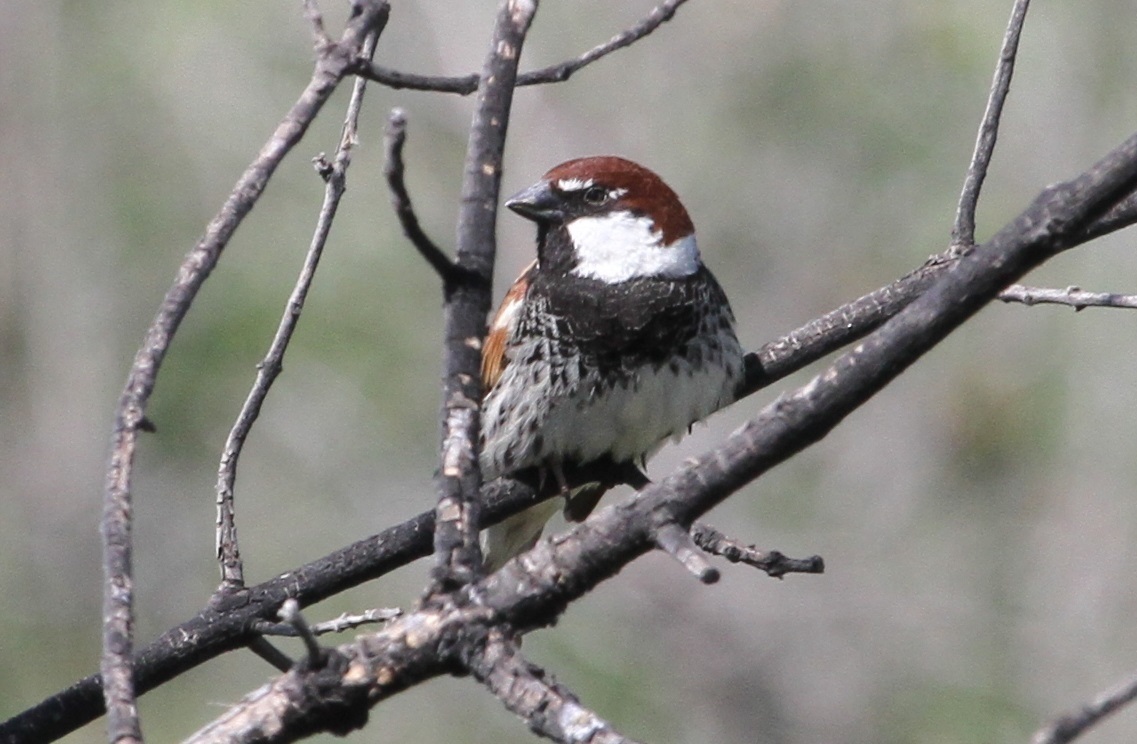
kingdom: Animalia
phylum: Chordata
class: Aves
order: Passeriformes
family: Passeridae
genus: Passer
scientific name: Passer hispaniolensis
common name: Spanish sparrow
